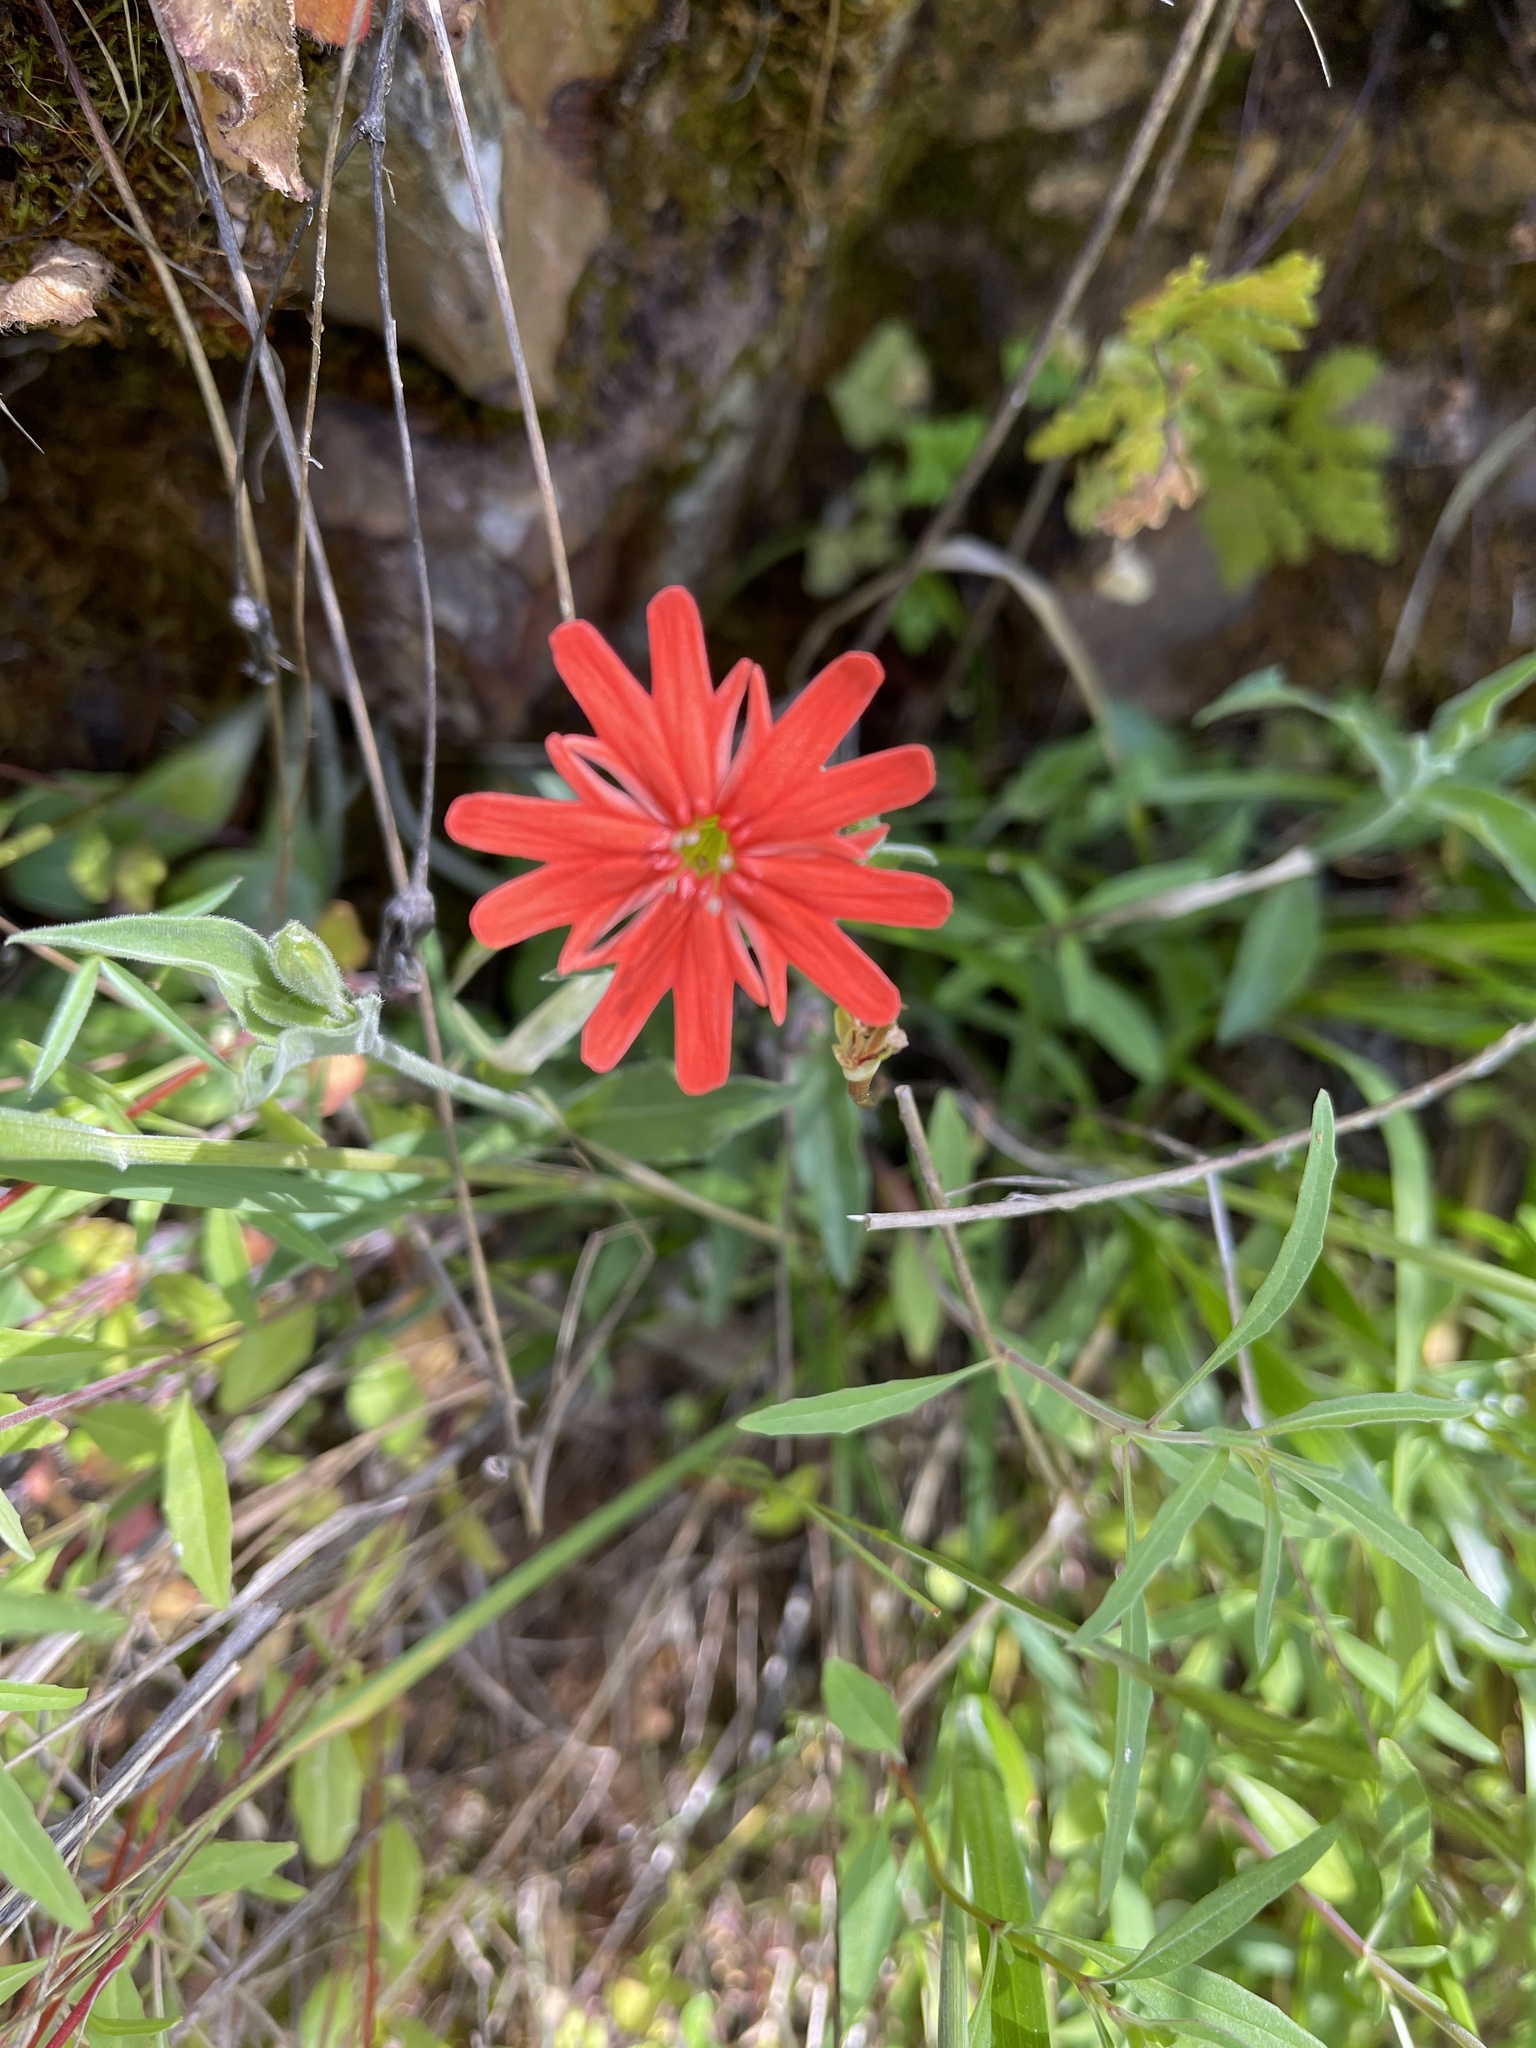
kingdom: Plantae
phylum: Tracheophyta
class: Magnoliopsida
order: Caryophyllales
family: Caryophyllaceae
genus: Silene
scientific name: Silene laciniata
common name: Indian-pink
